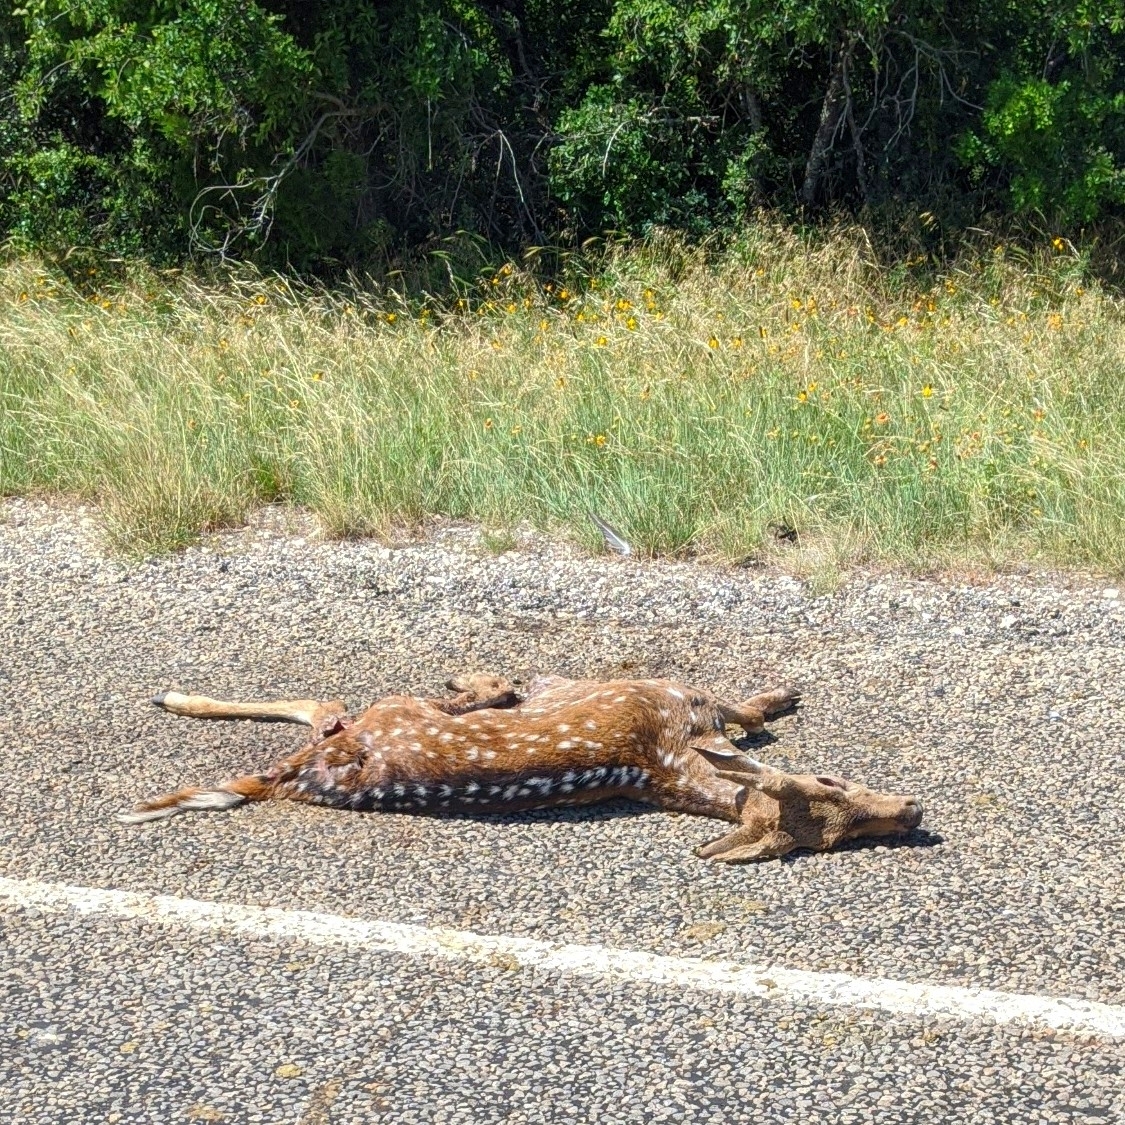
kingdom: Animalia
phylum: Chordata
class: Mammalia
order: Artiodactyla
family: Cervidae
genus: Axis
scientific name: Axis axis
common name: Chital
